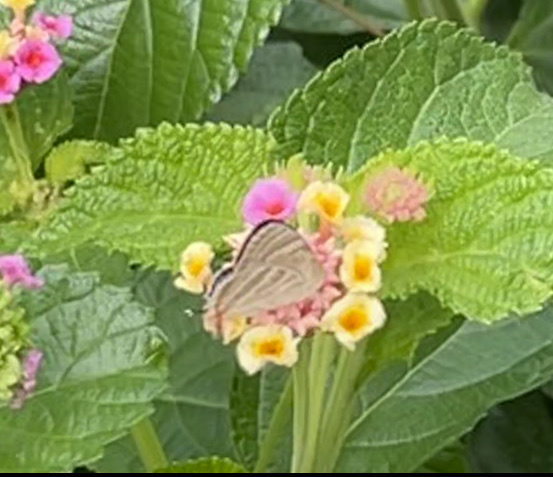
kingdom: Animalia
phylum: Arthropoda
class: Insecta
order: Lepidoptera
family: Lycaenidae
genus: Dolymorpha
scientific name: Dolymorpha jada
